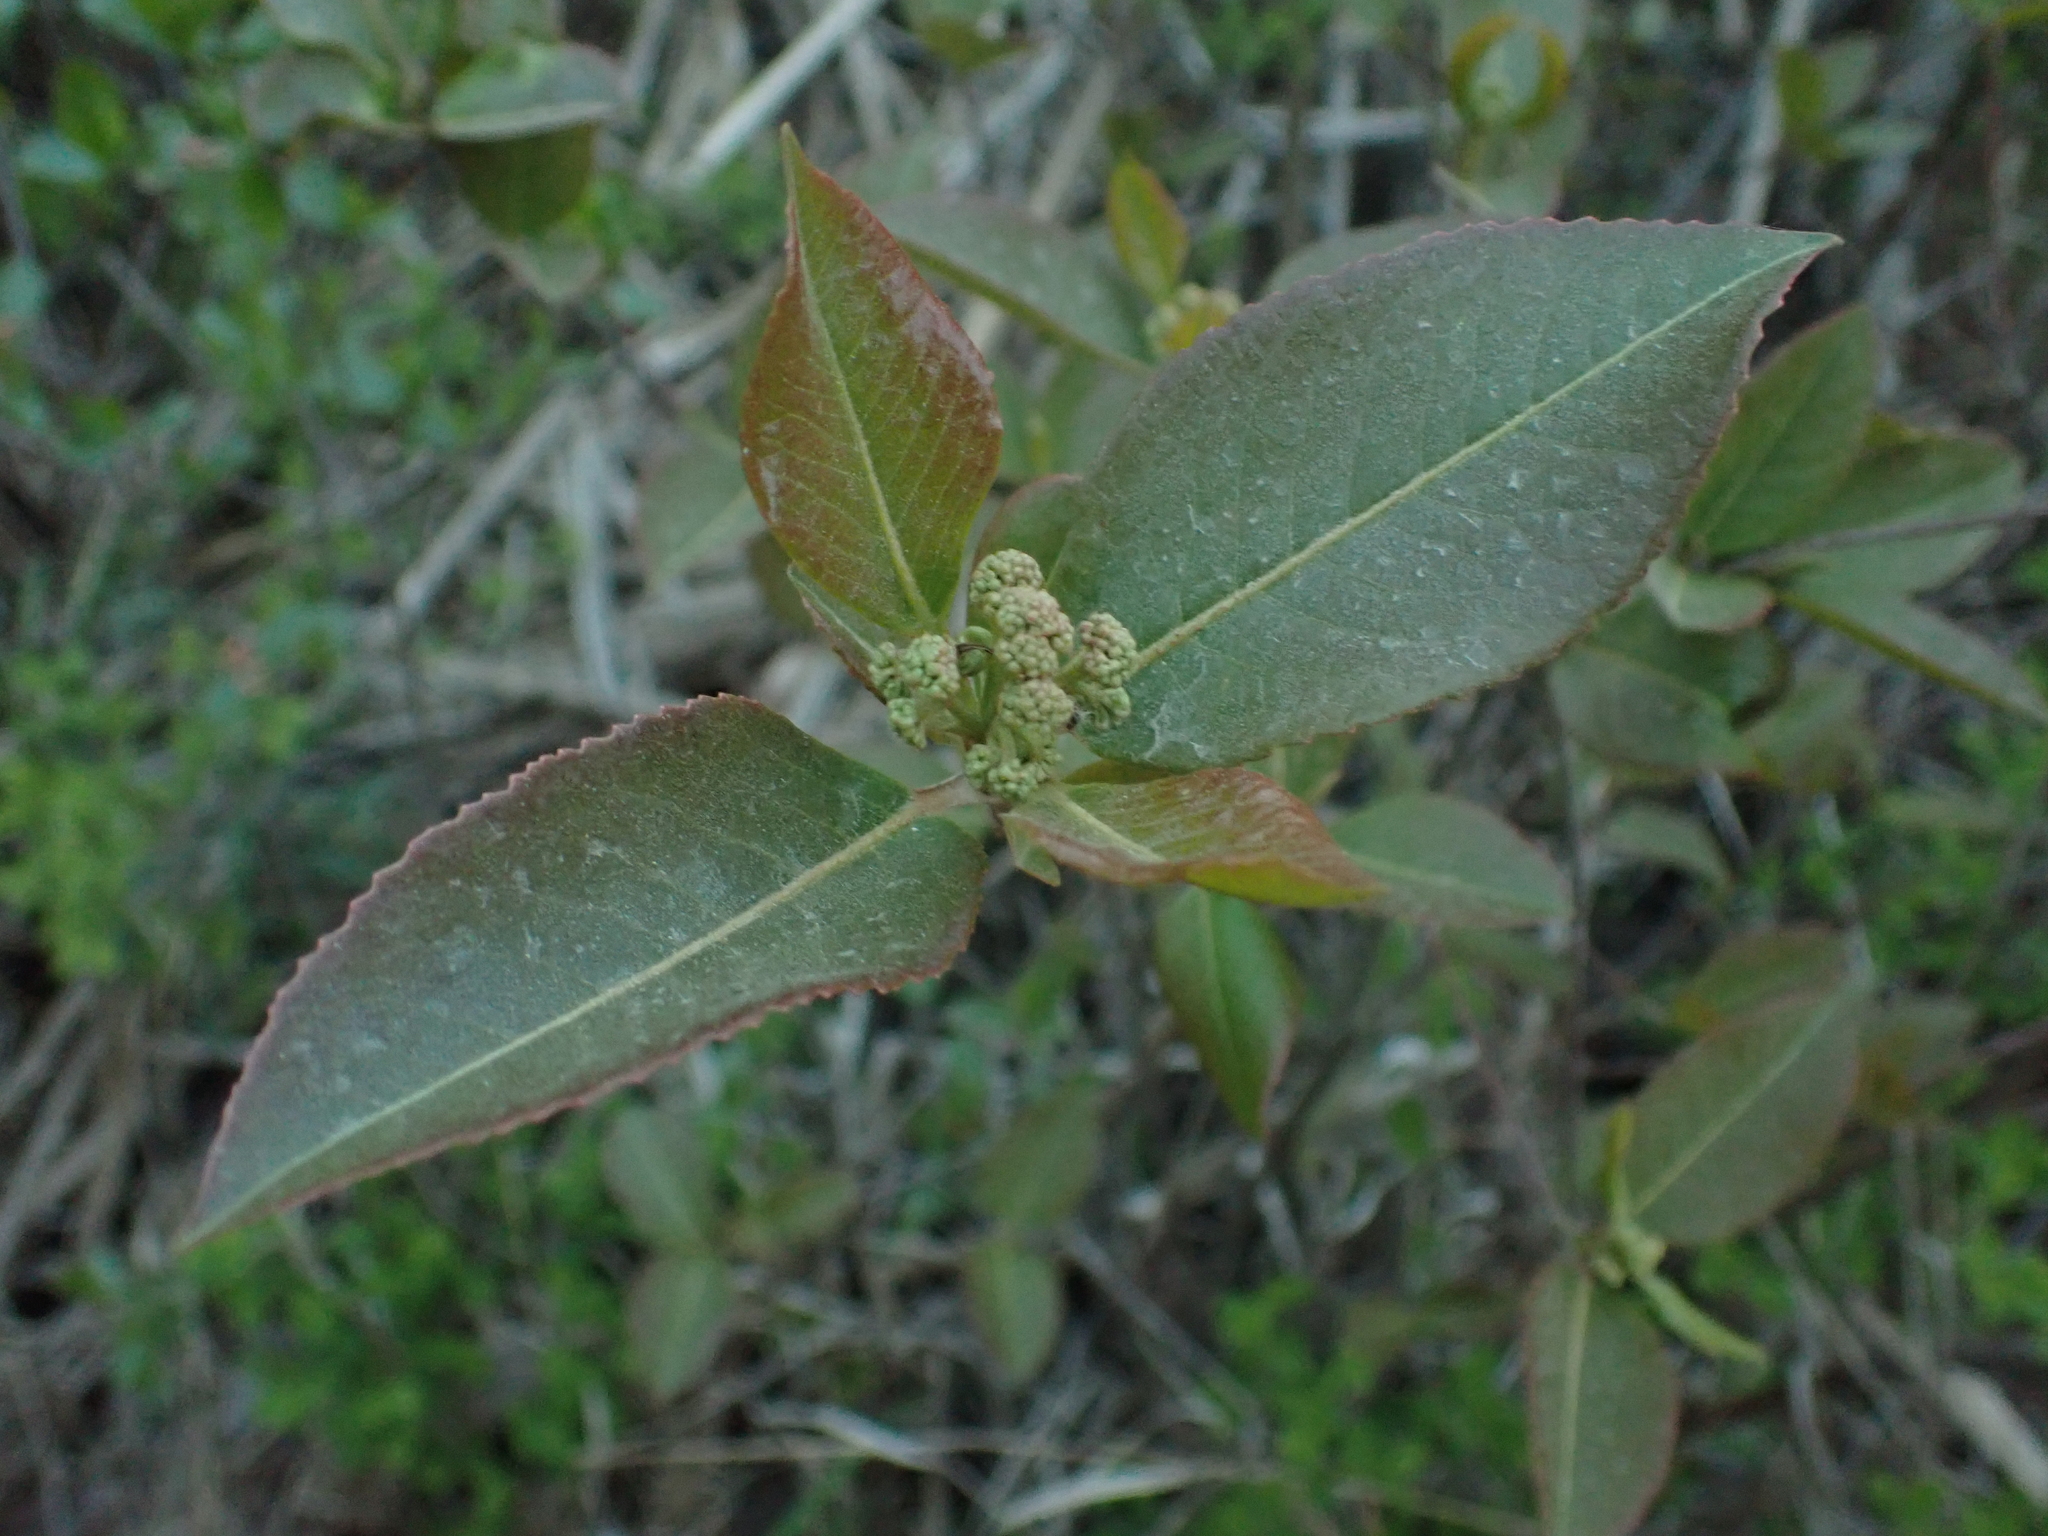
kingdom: Plantae
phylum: Tracheophyta
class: Magnoliopsida
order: Dipsacales
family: Viburnaceae
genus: Viburnum
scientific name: Viburnum cassinoides
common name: Swamp haw
